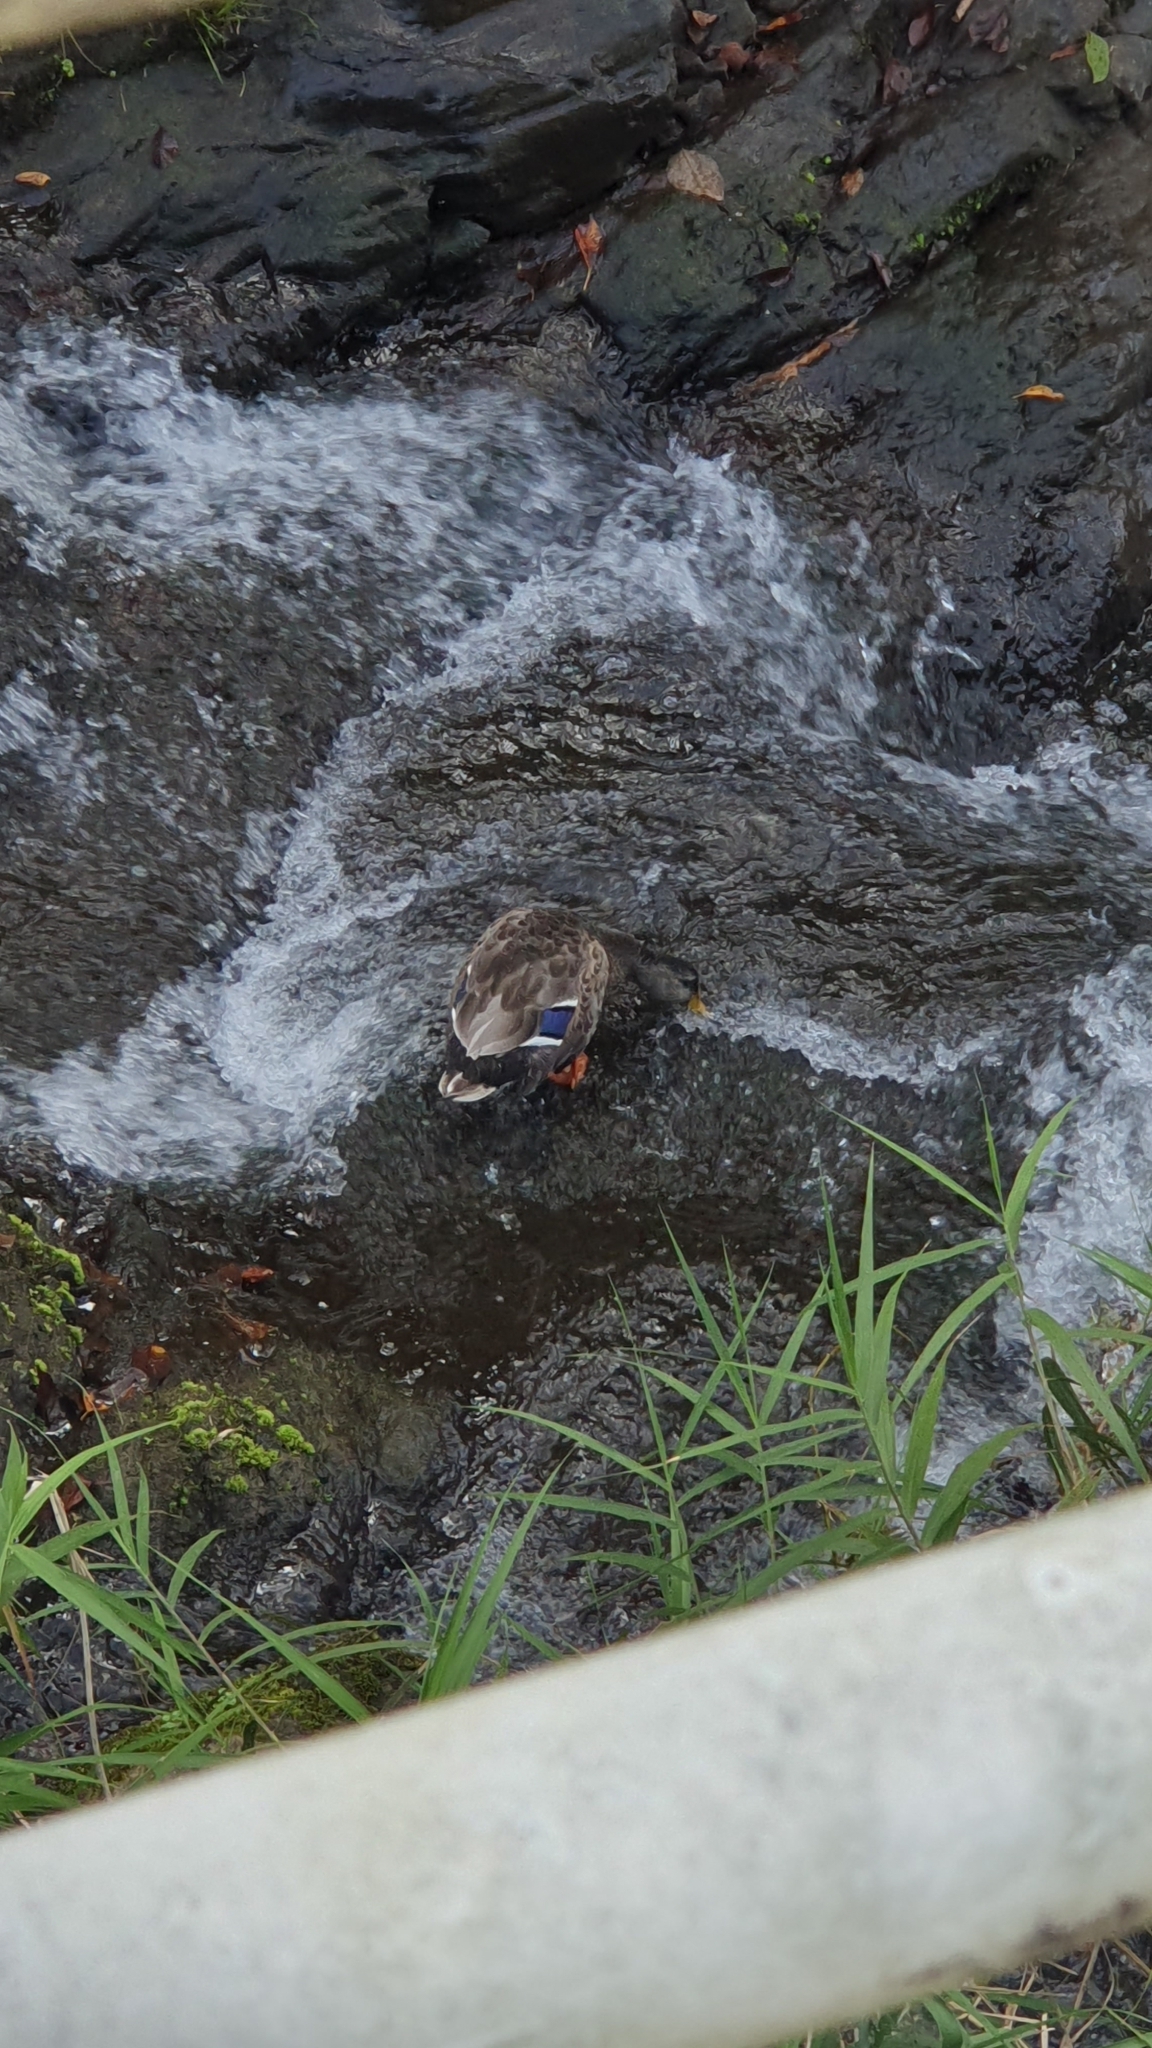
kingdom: Animalia
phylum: Chordata
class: Aves
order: Anseriformes
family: Anatidae
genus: Anas
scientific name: Anas platyrhynchos
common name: Mallard
